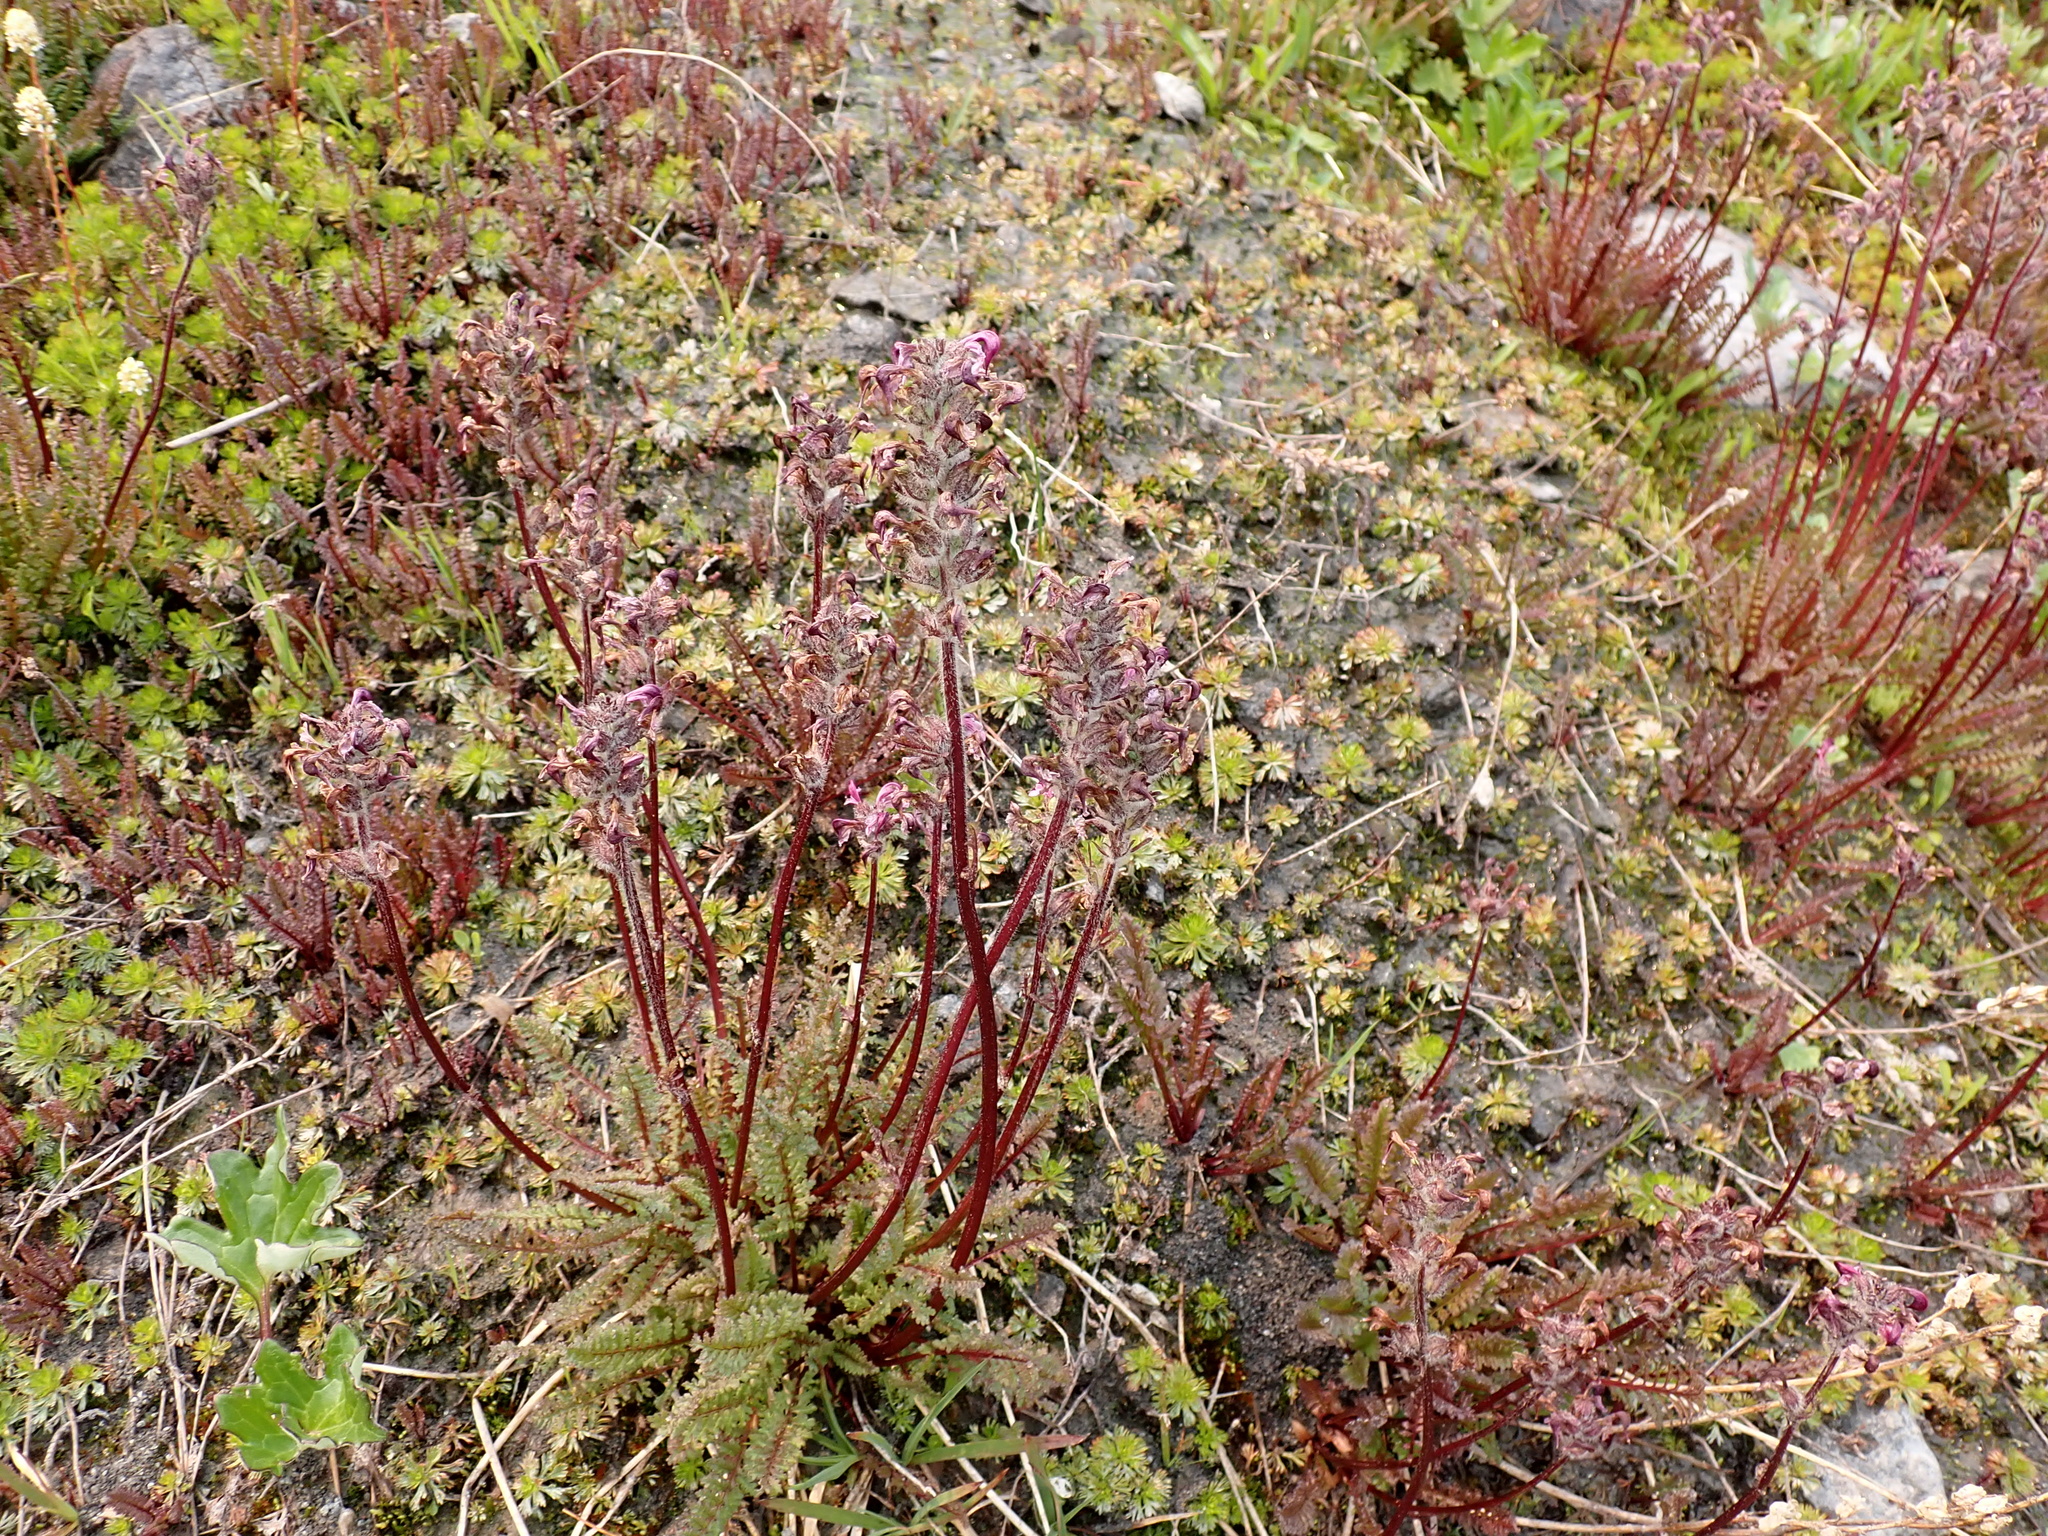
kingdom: Plantae
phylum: Tracheophyta
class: Magnoliopsida
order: Lamiales
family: Orobanchaceae
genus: Pedicularis
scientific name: Pedicularis ornithorhynchos
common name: Bird's-beak lousewort
